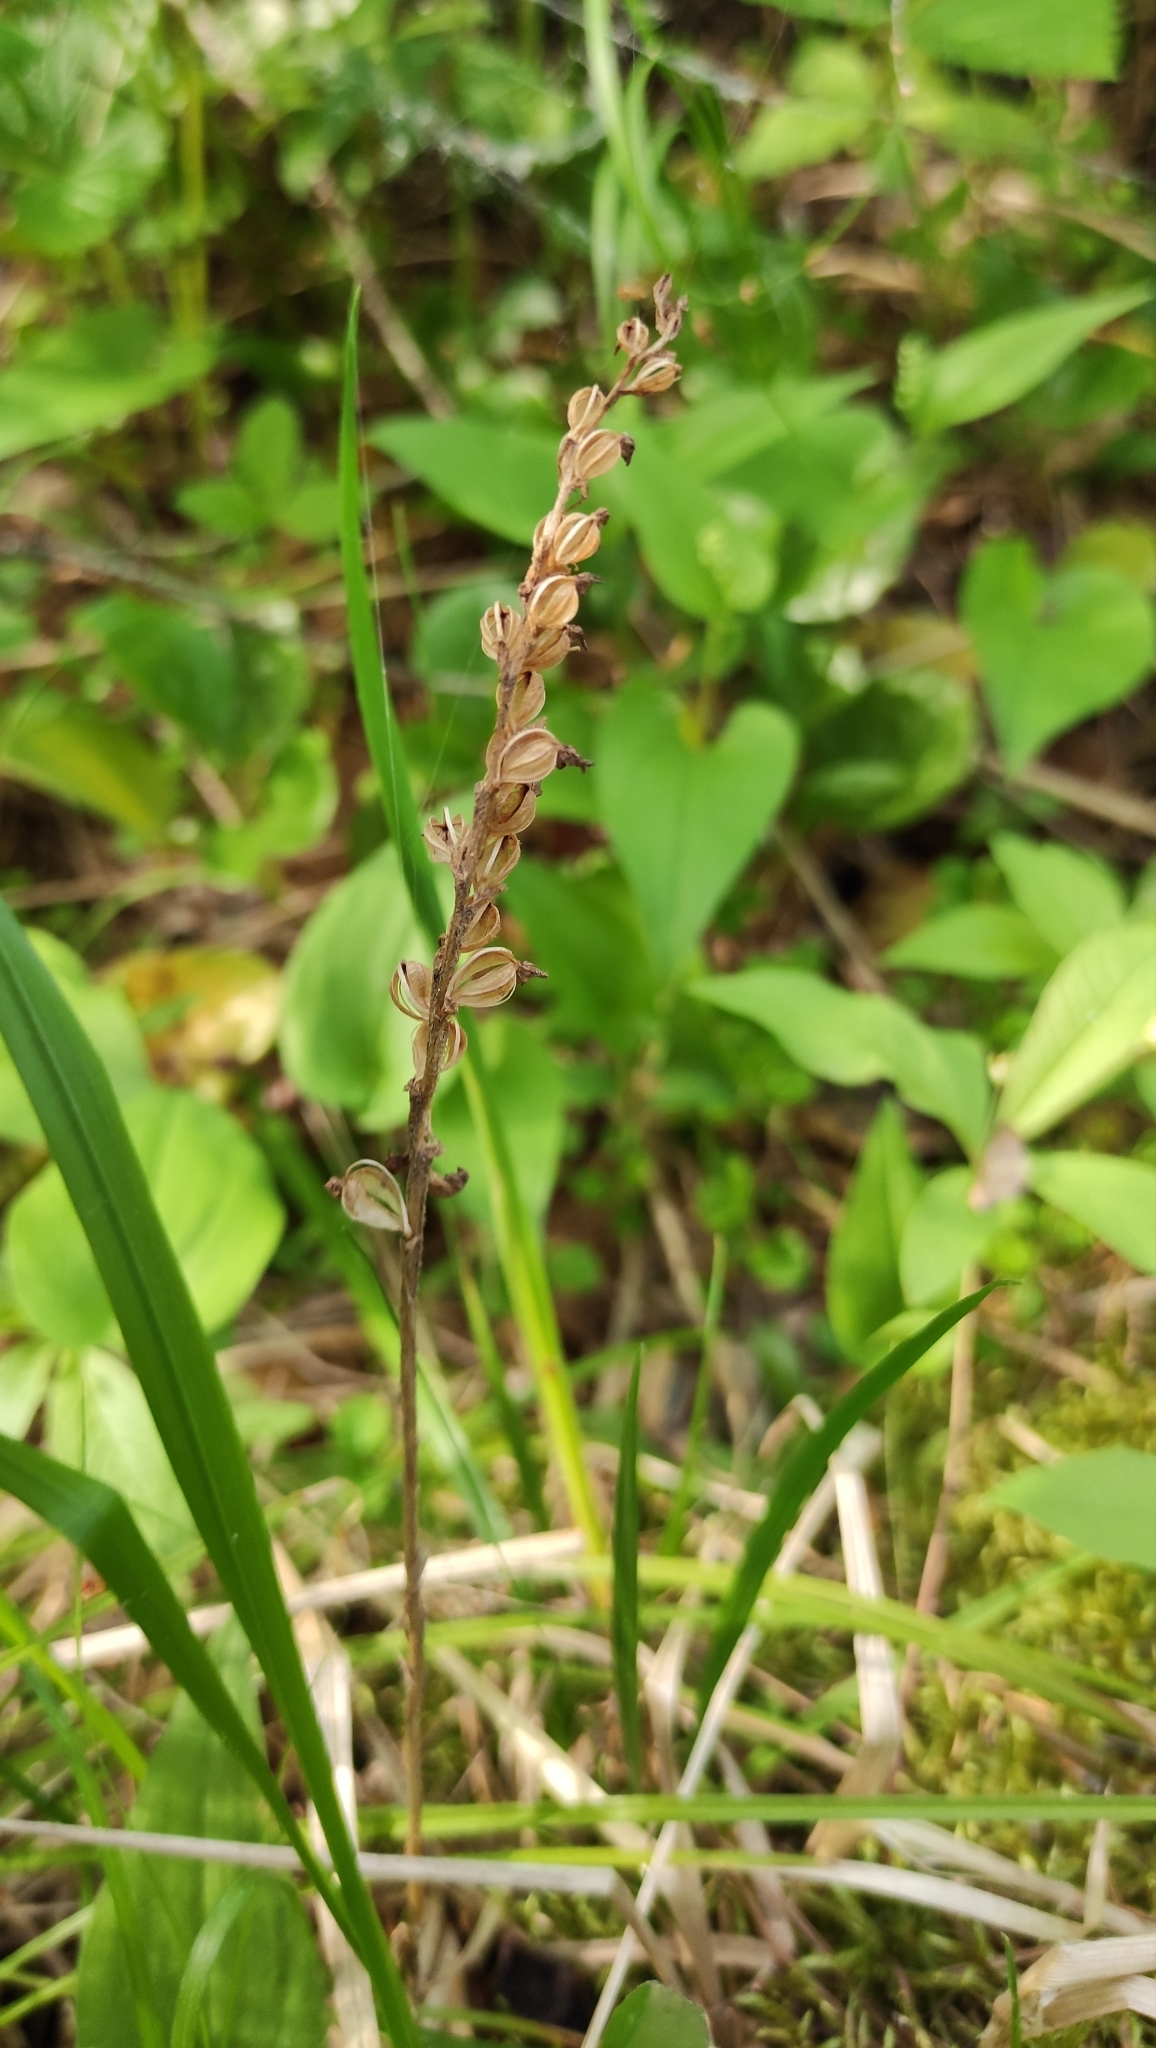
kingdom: Plantae
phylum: Tracheophyta
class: Liliopsida
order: Asparagales
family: Orchidaceae
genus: Goodyera
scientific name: Goodyera repens
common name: Creeping lady's-tresses
